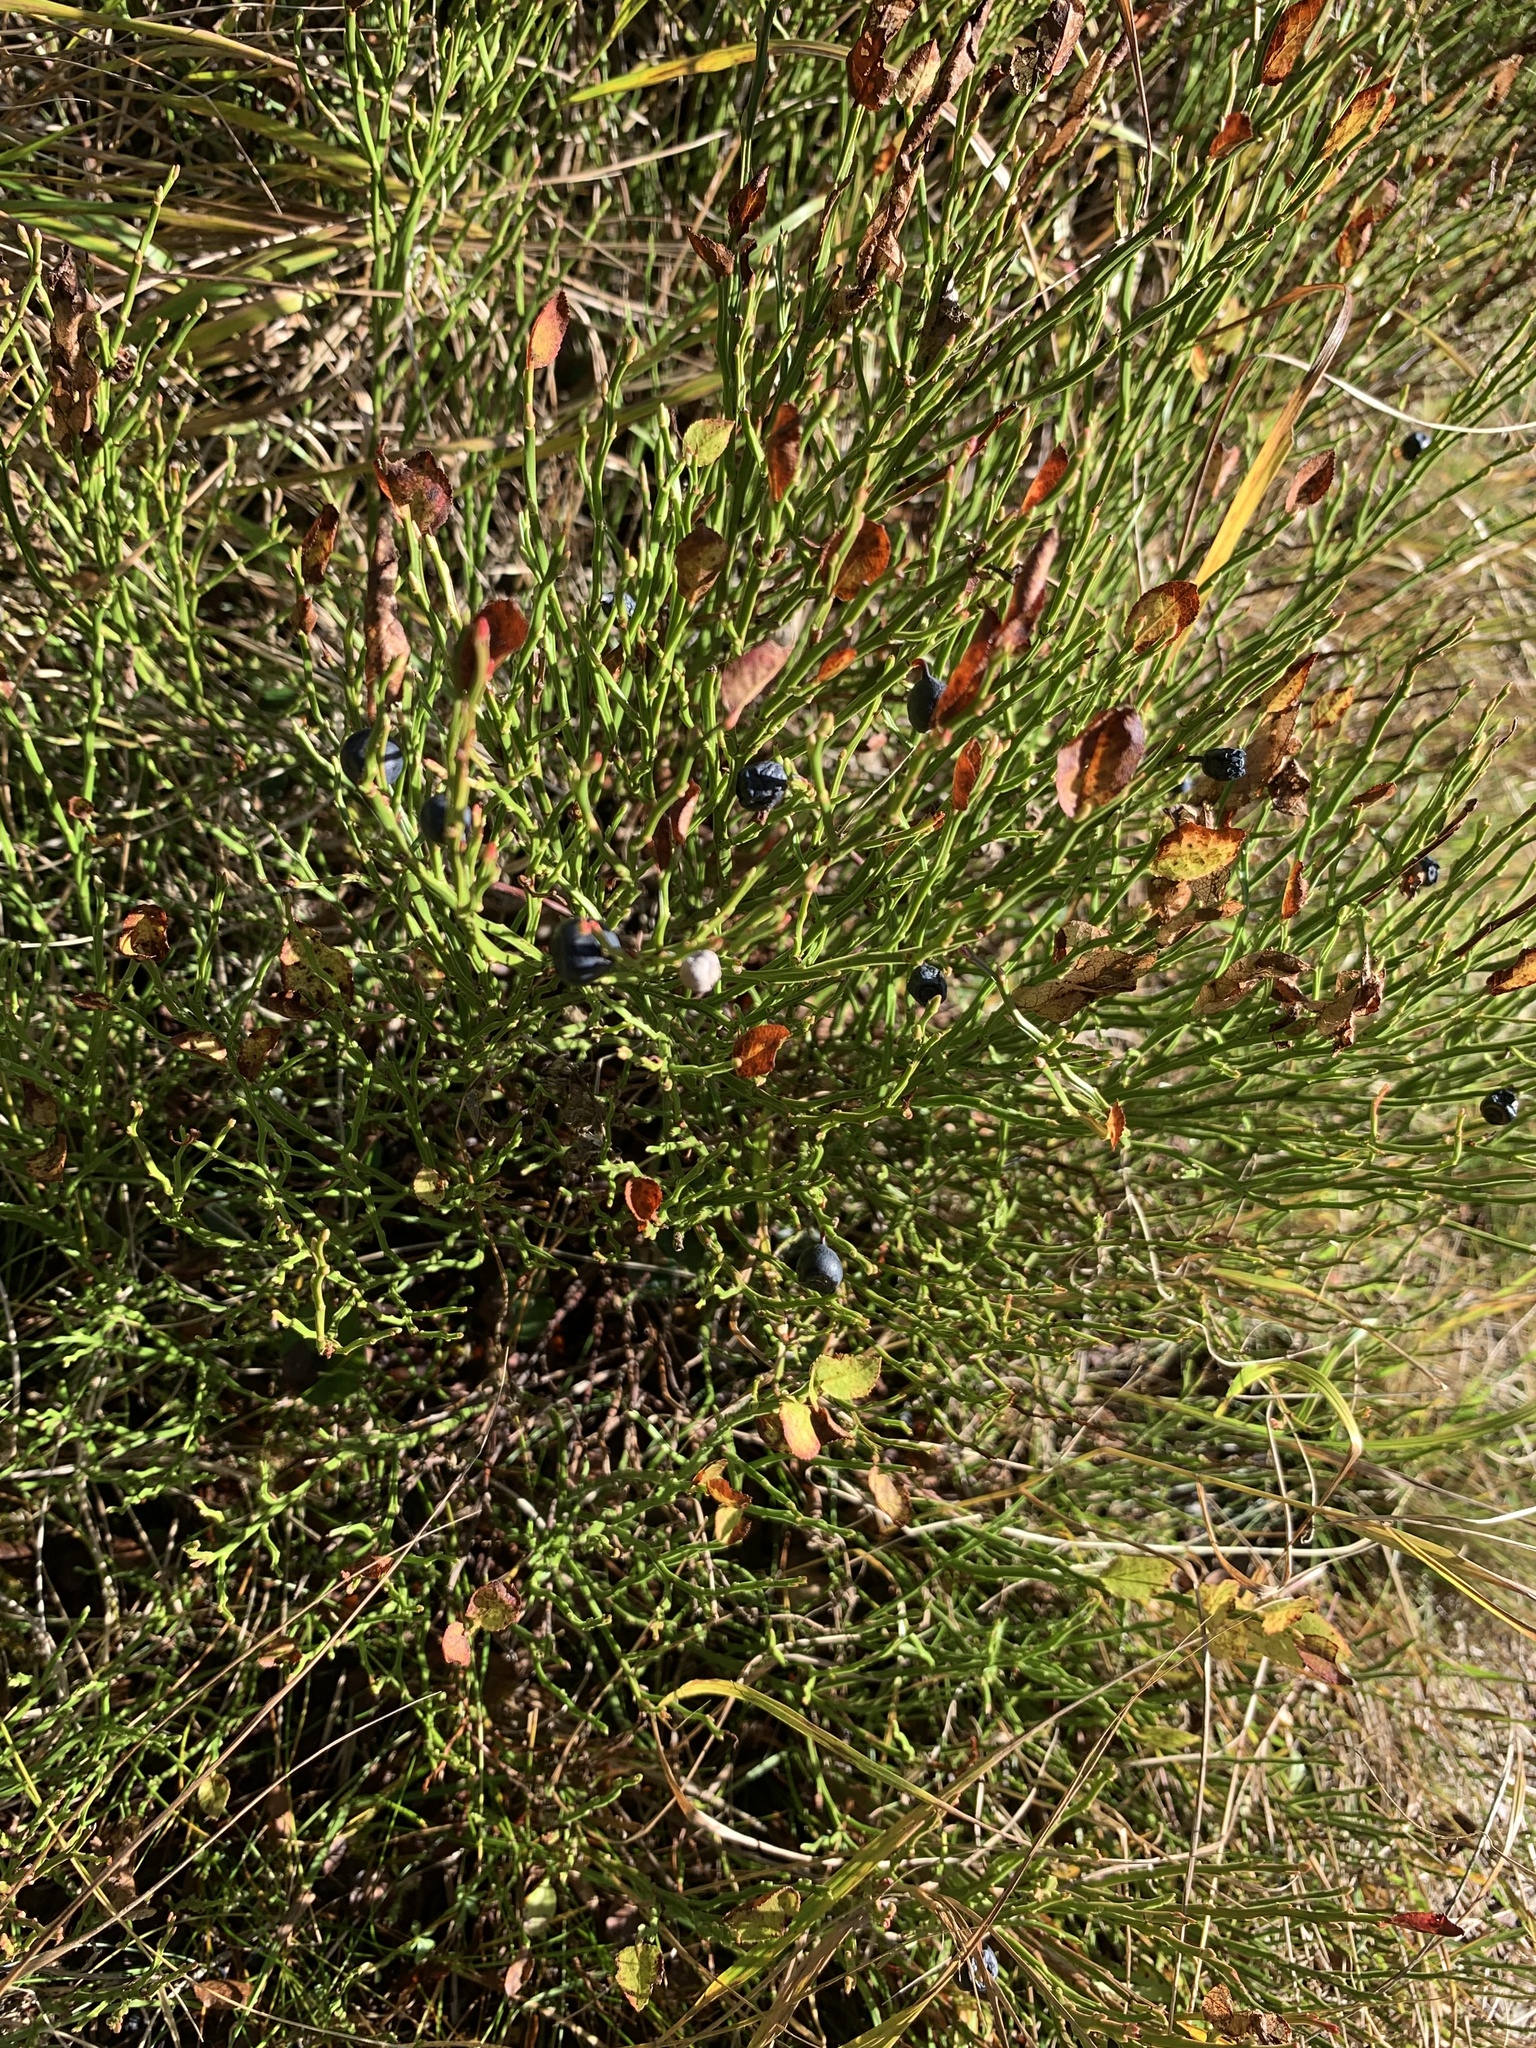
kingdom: Plantae
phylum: Tracheophyta
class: Magnoliopsida
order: Ericales
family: Ericaceae
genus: Vaccinium
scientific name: Vaccinium myrtillus
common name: Bilberry
